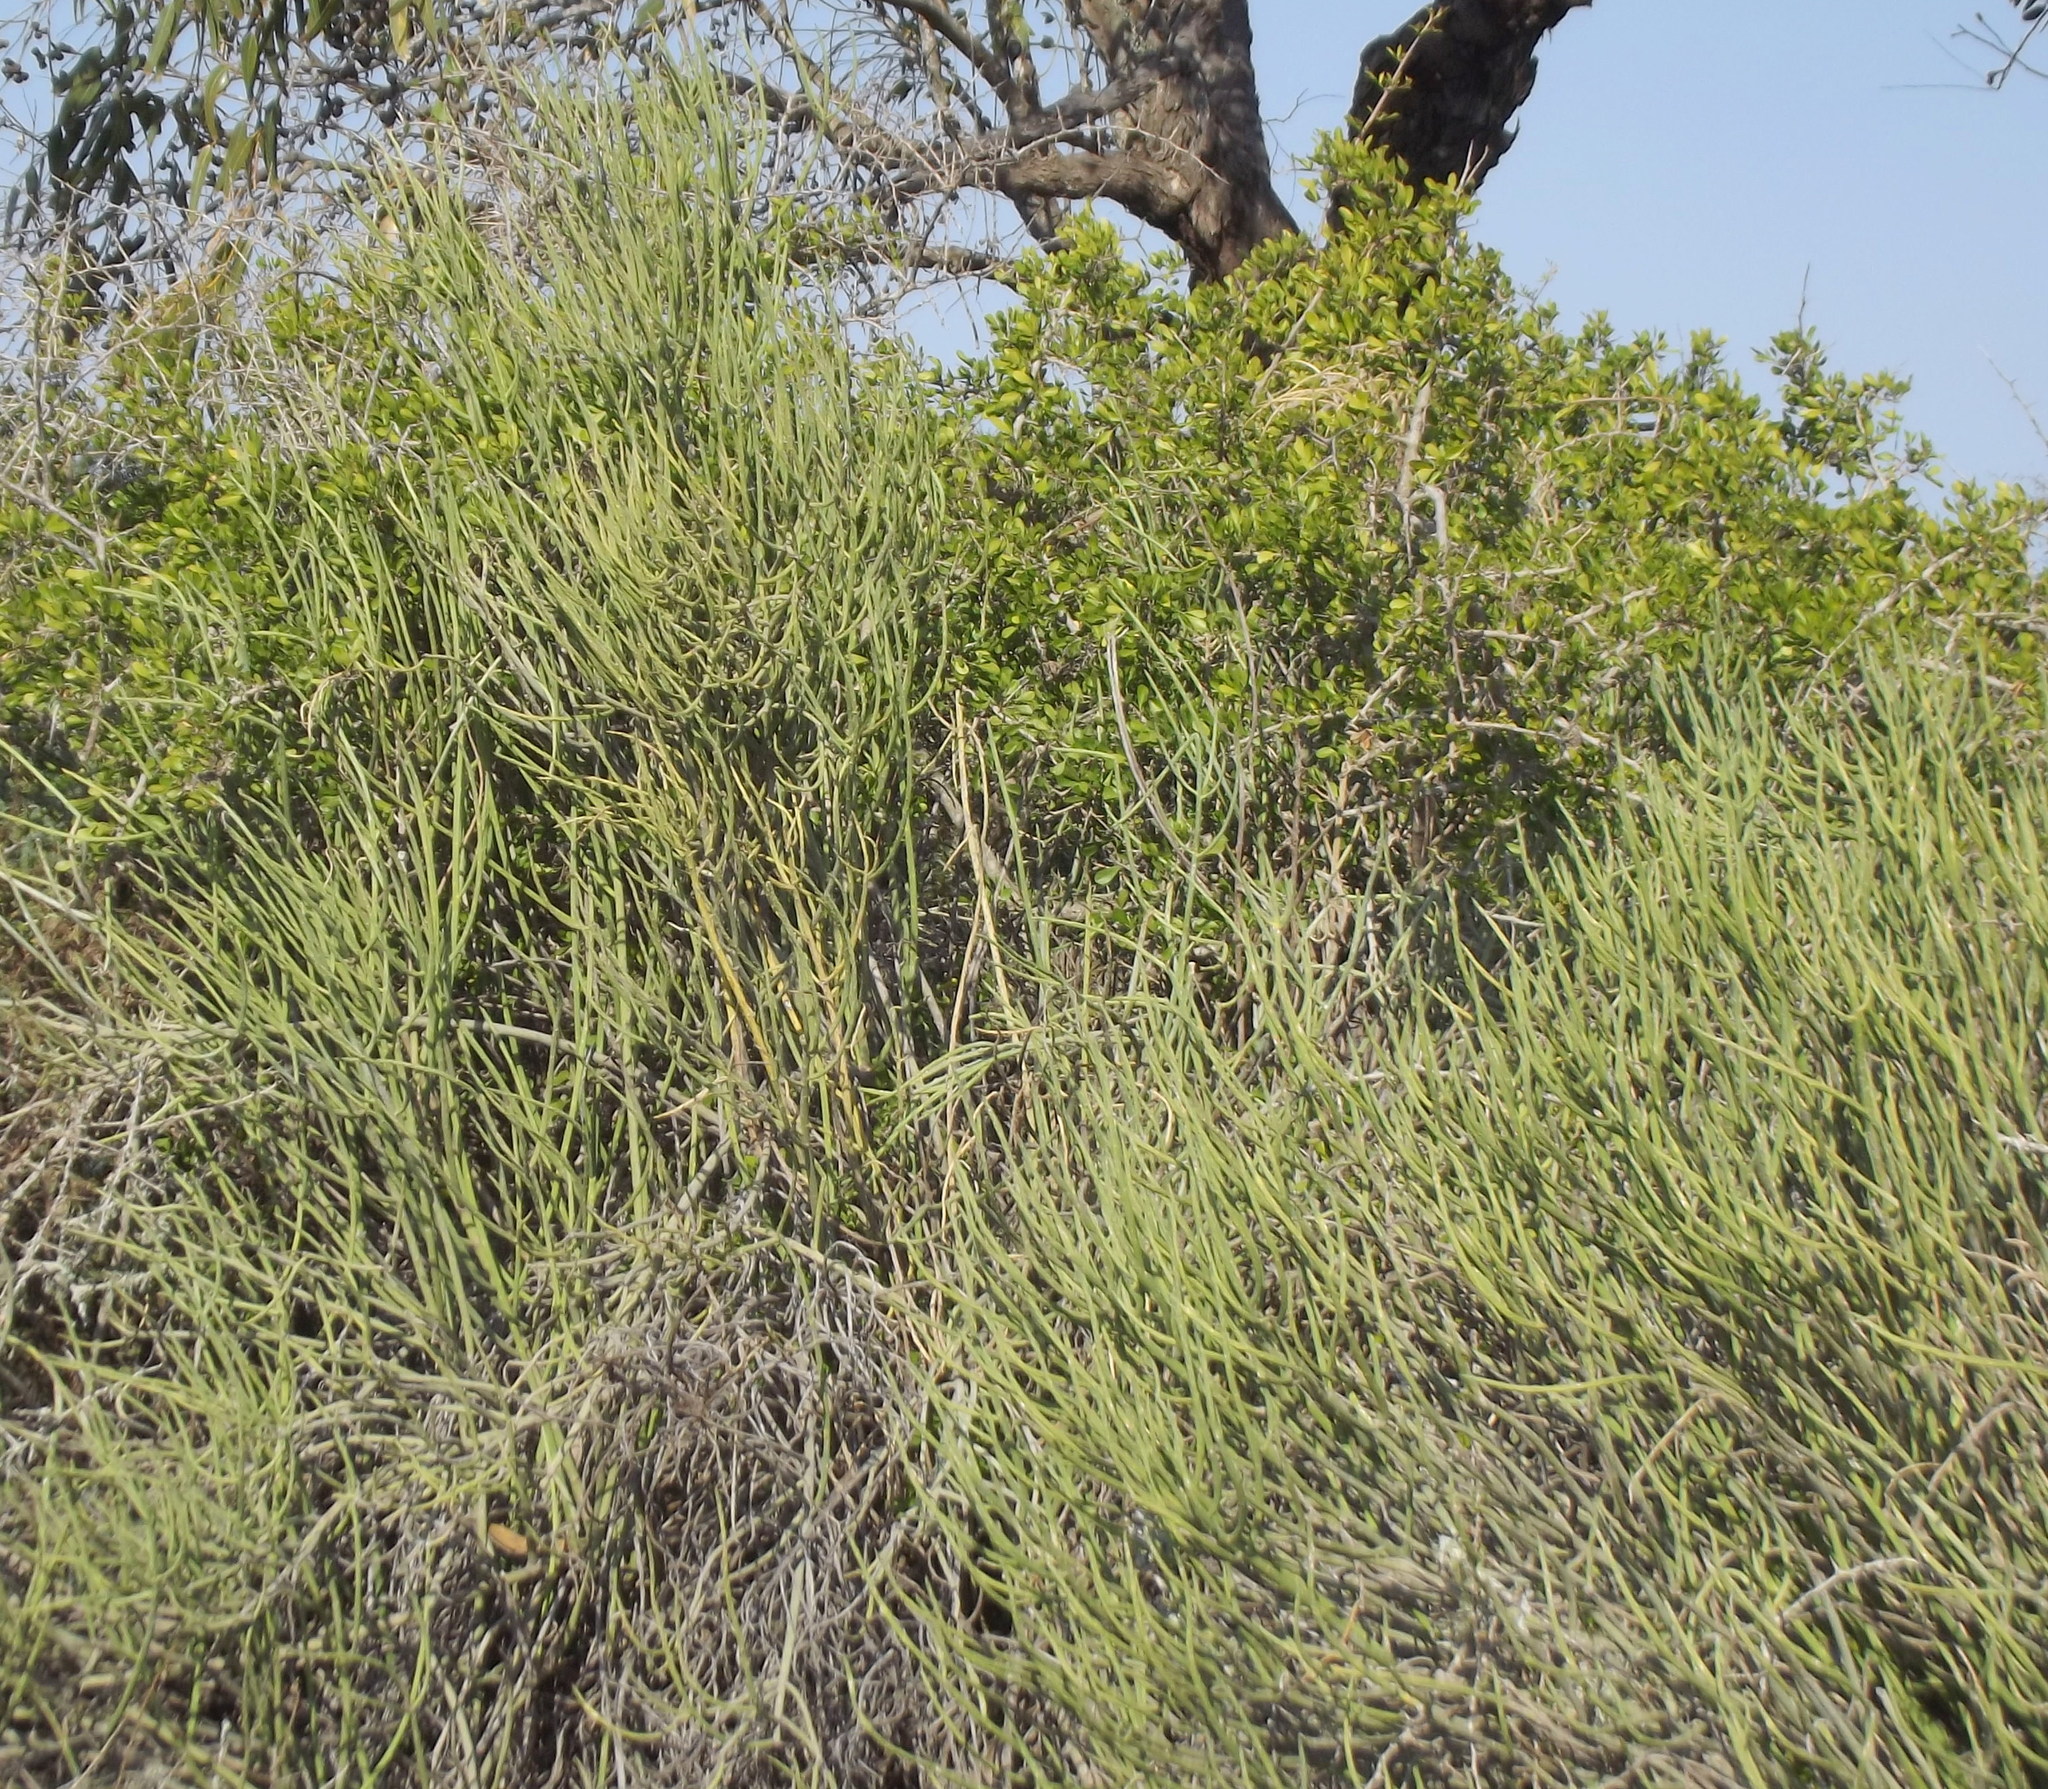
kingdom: Plantae
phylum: Tracheophyta
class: Magnoliopsida
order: Malpighiales
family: Euphorbiaceae
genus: Euphorbia
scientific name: Euphorbia mauritanica
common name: Jackal's-food
